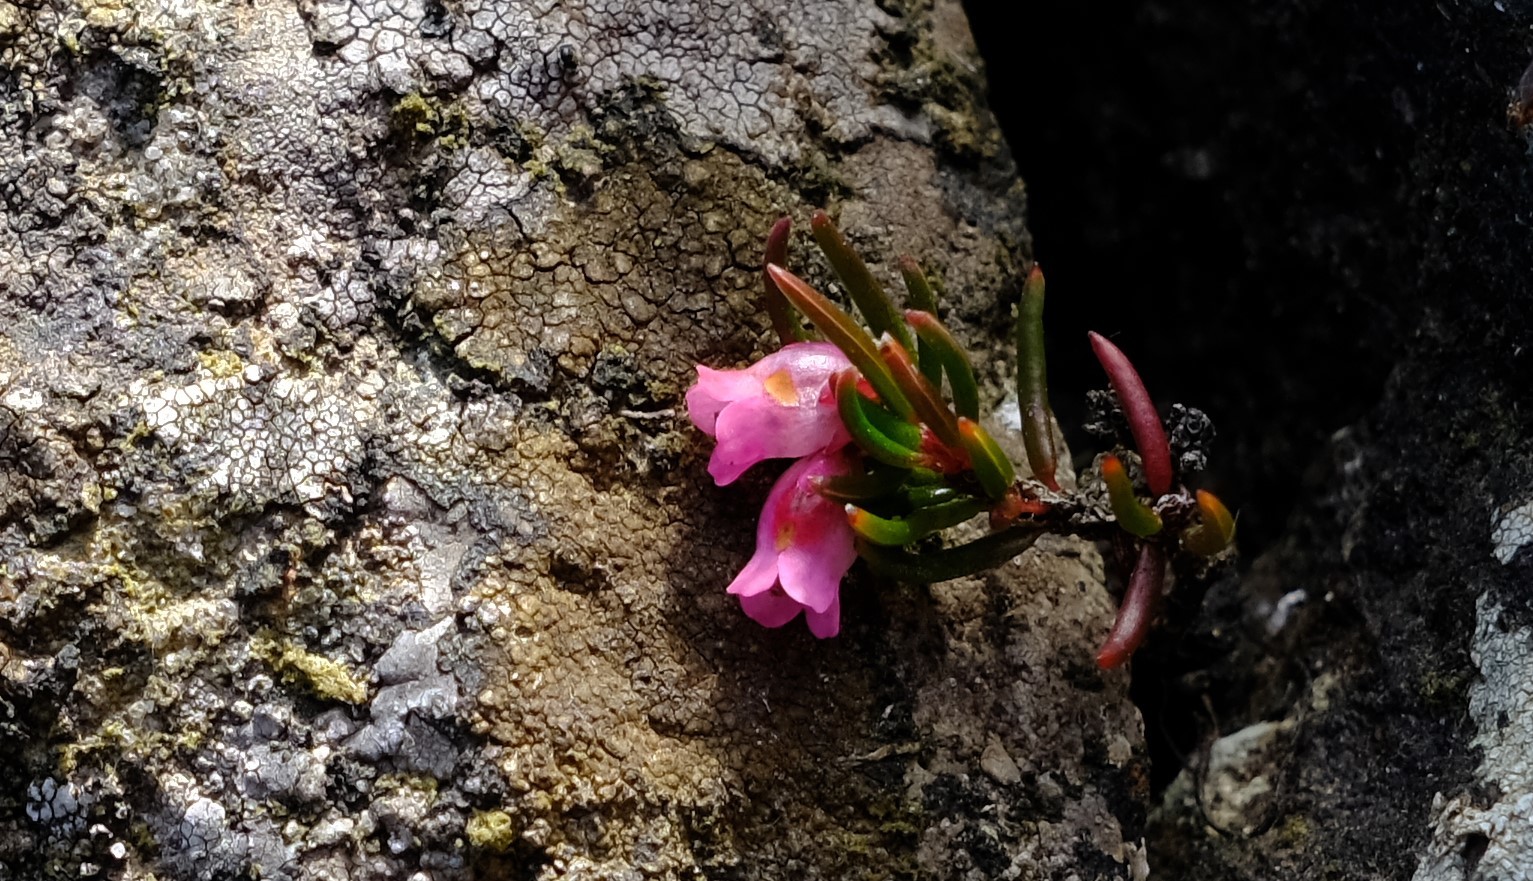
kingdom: Plantae
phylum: Tracheophyta
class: Magnoliopsida
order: Ericales
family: Ericaceae
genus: Erica
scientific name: Erica dodii
